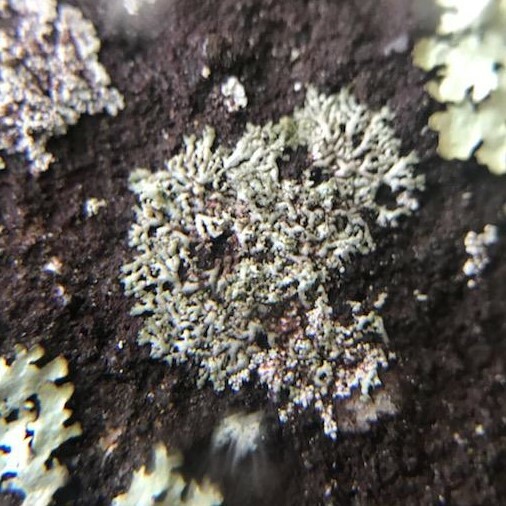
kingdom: Fungi
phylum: Ascomycota
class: Lecanoromycetes
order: Caliciales
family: Physciaceae
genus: Physcia
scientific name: Physcia subtilis
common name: Slender rosette lichen
